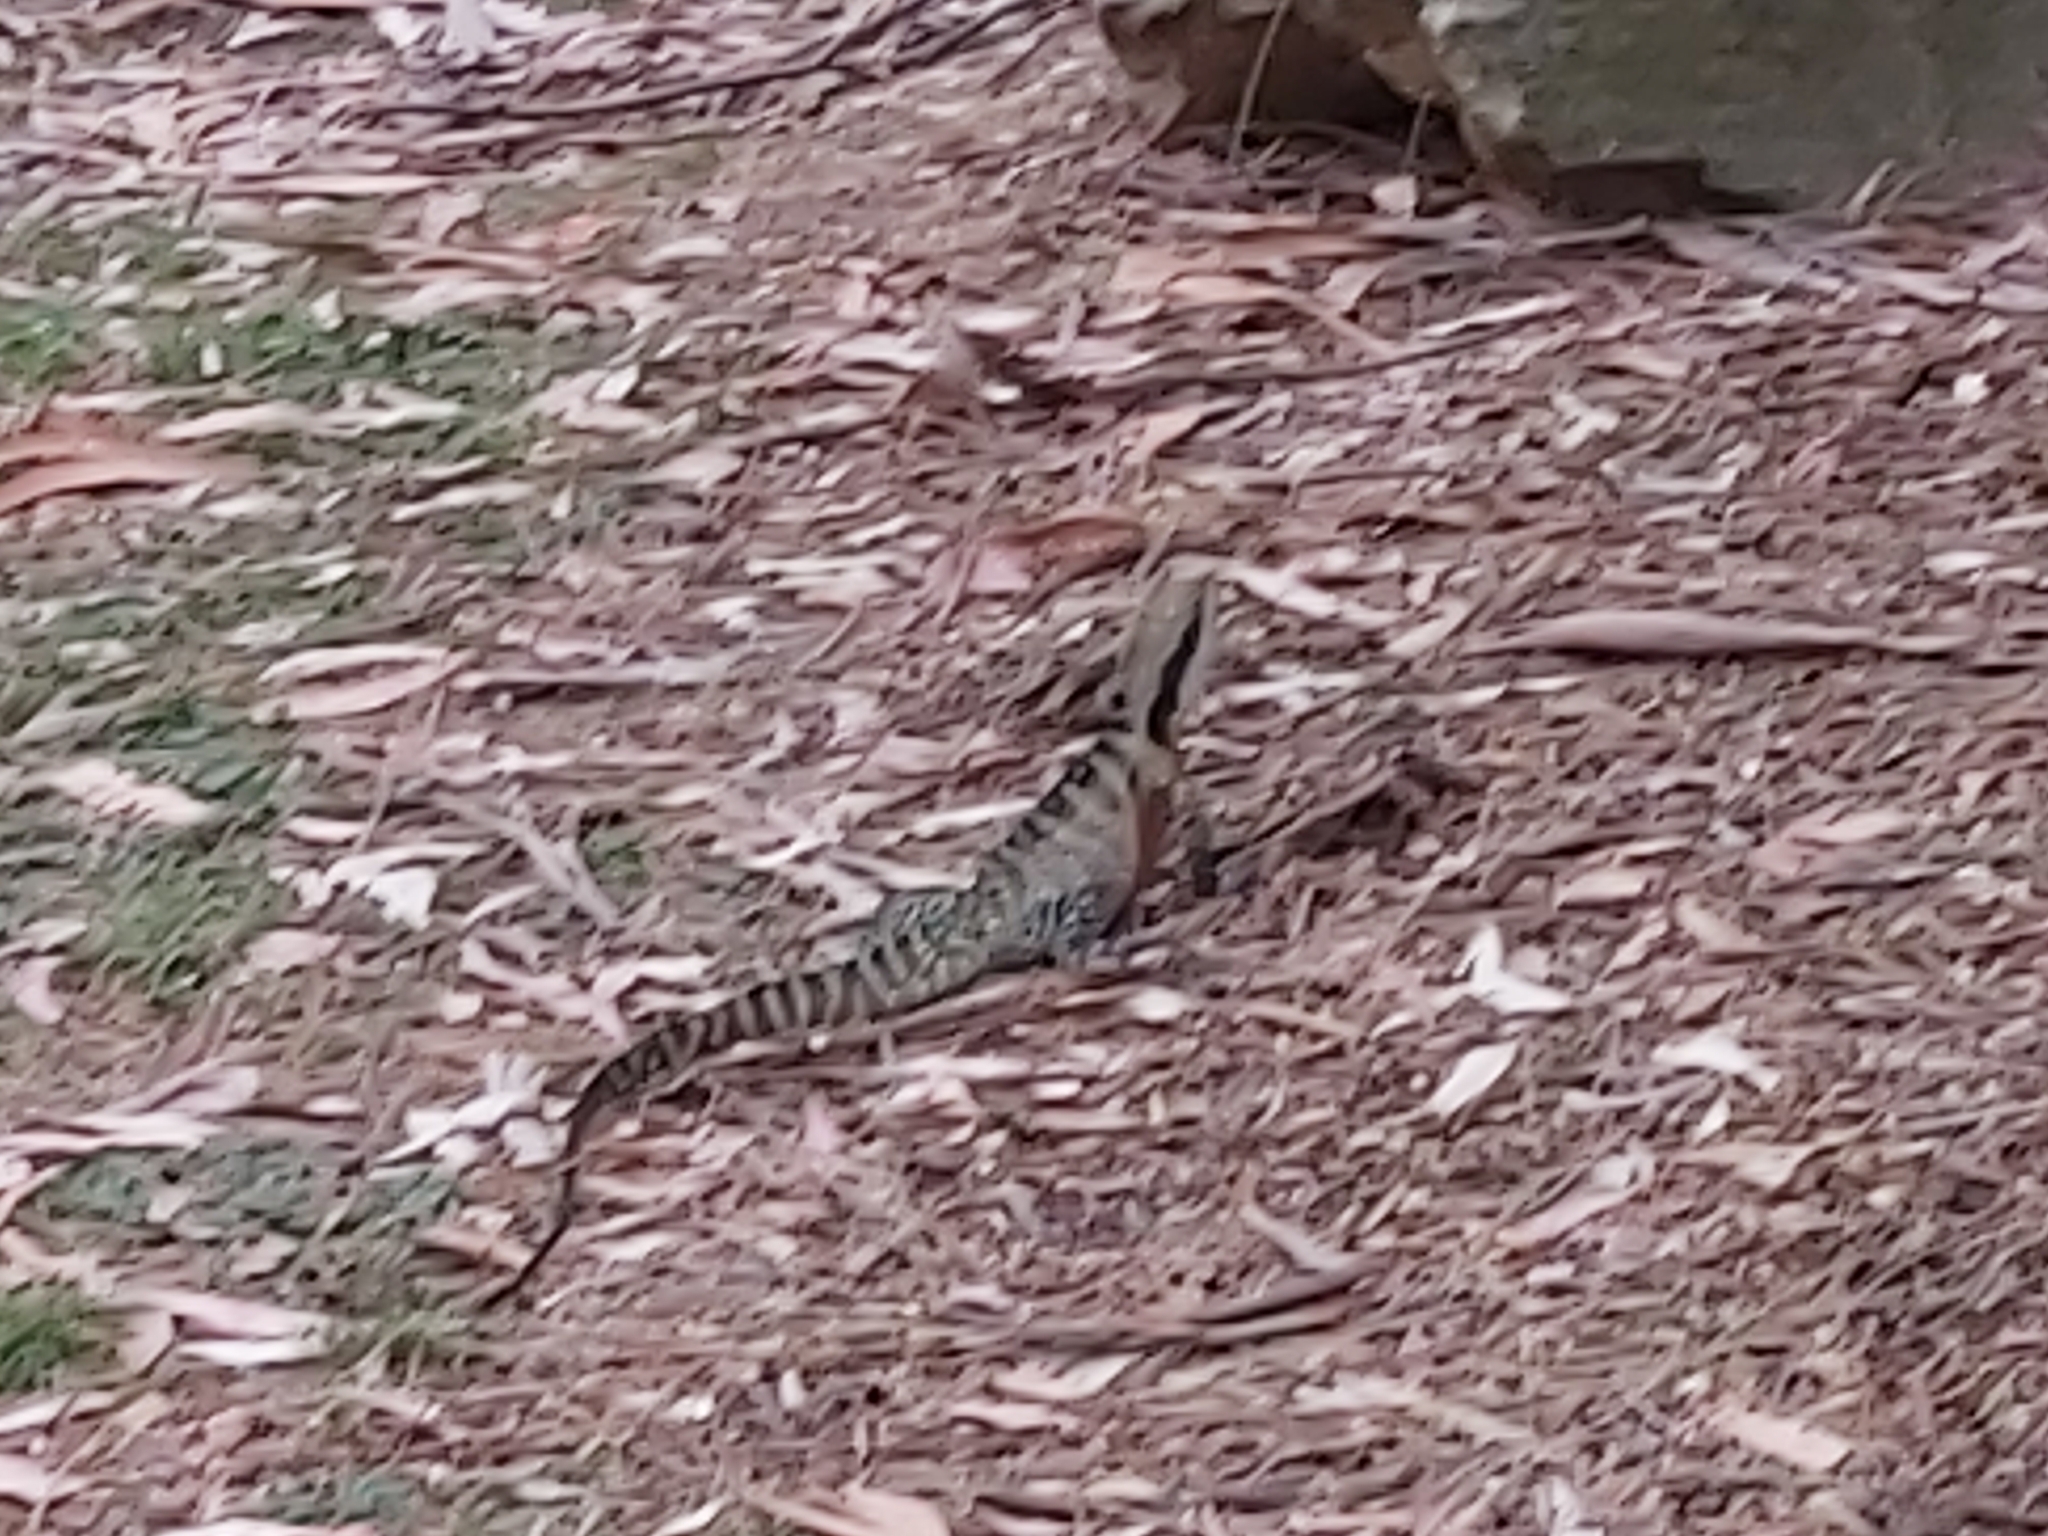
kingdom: Animalia
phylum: Chordata
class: Squamata
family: Agamidae
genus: Intellagama
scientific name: Intellagama lesueurii
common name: Eastern water dragon
